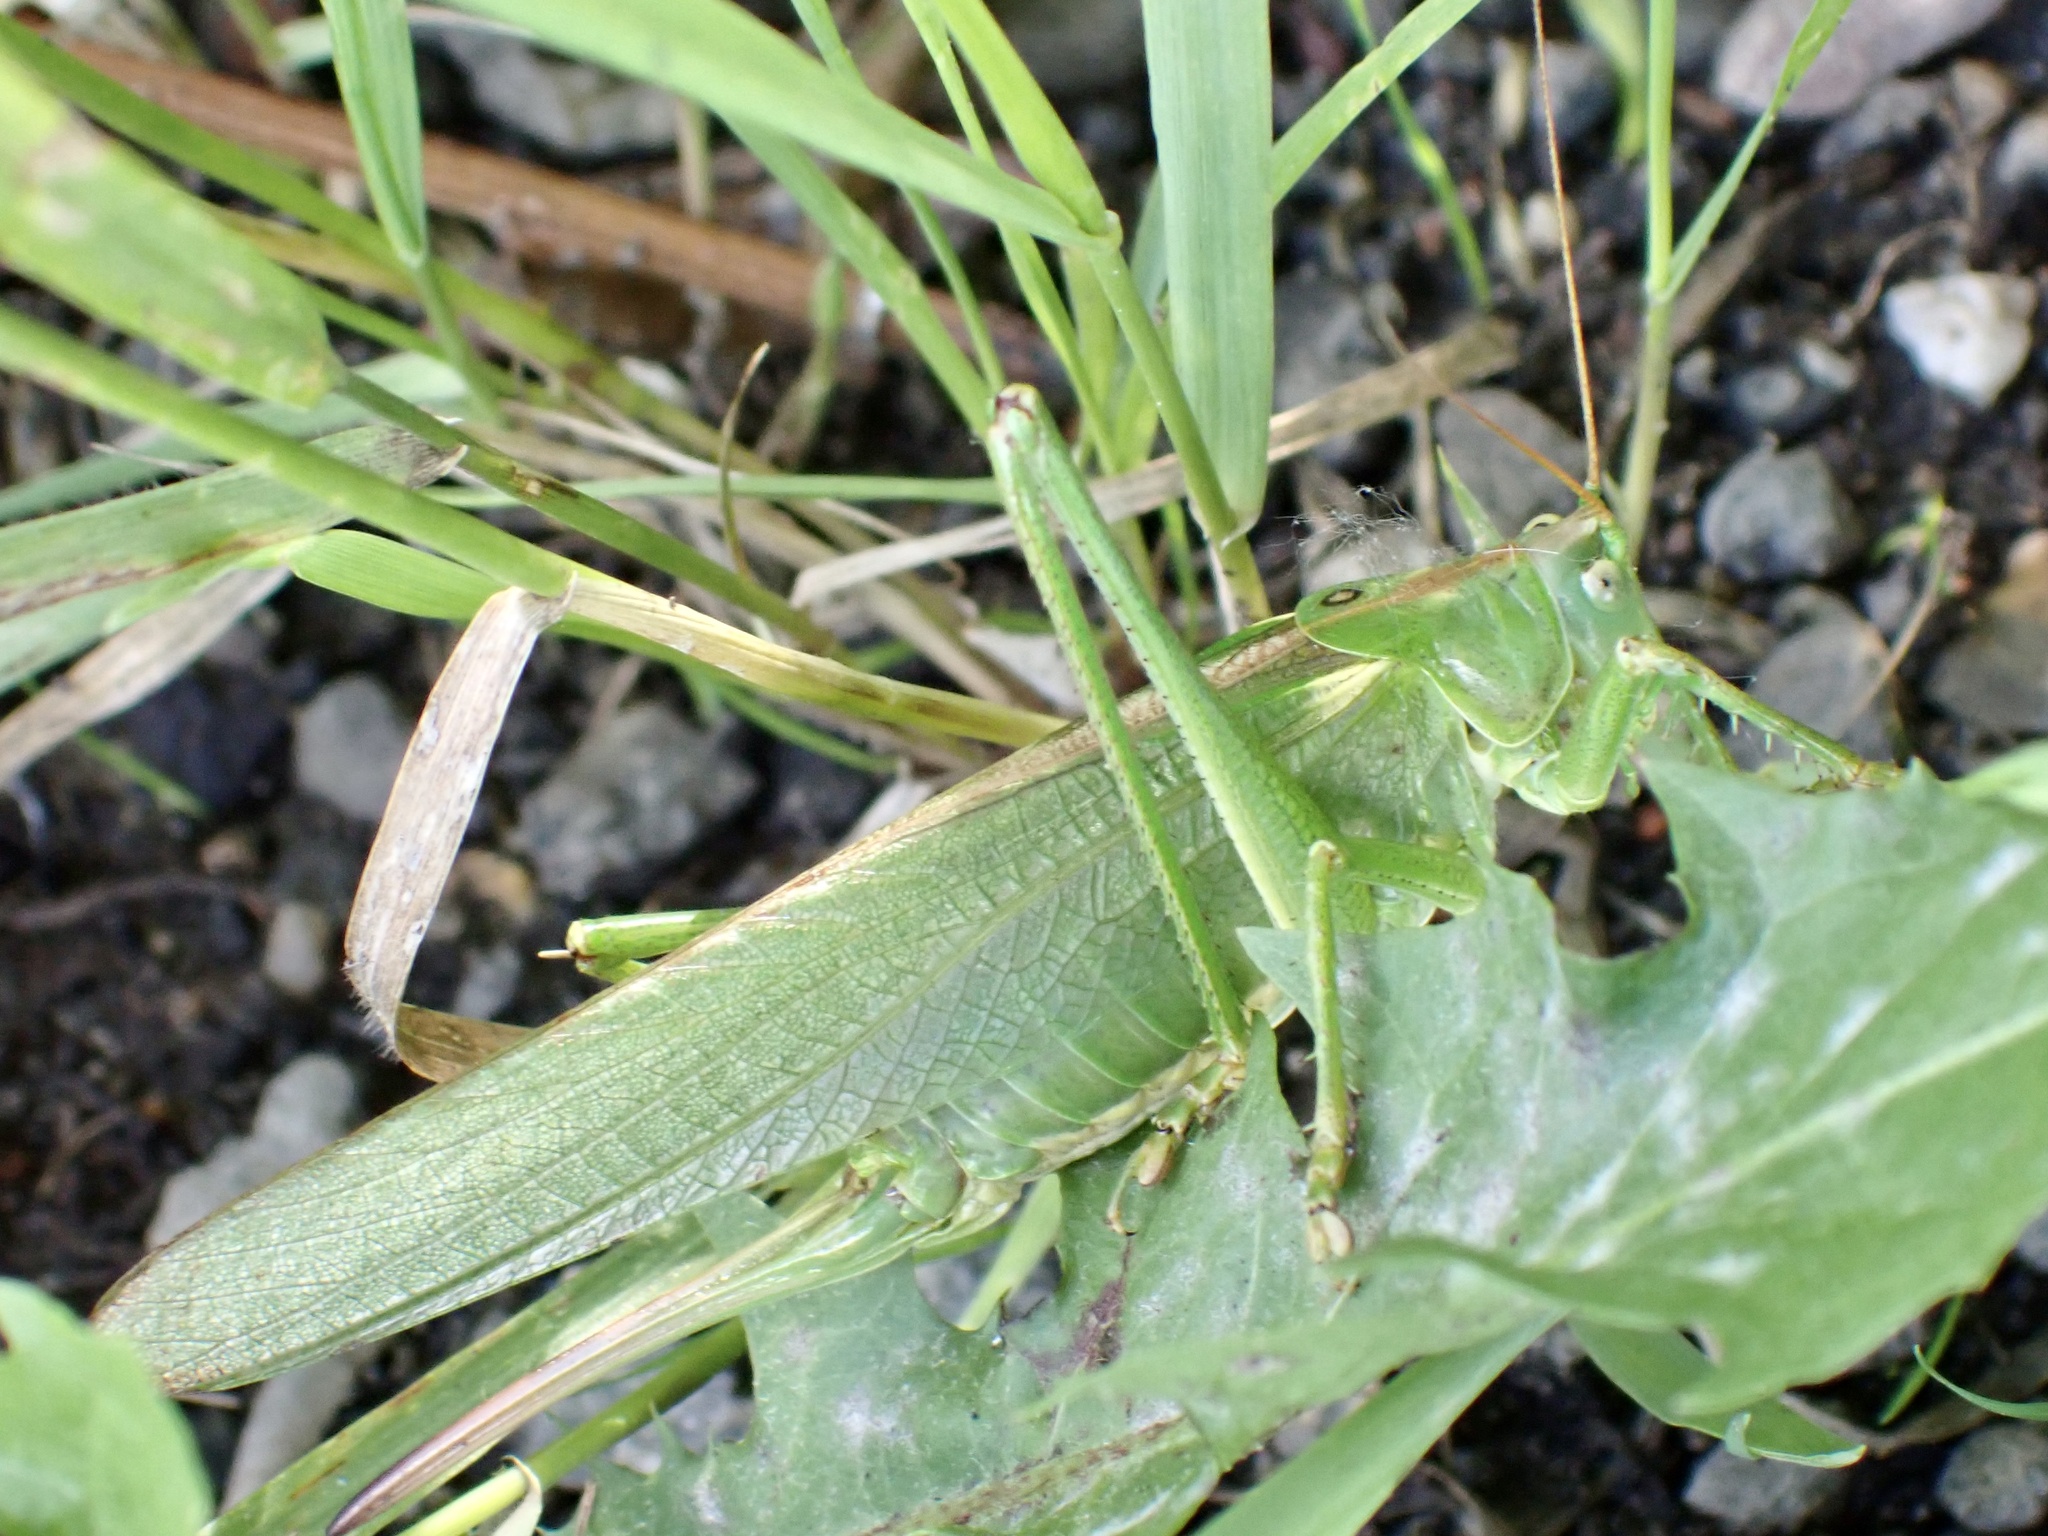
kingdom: Animalia
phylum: Arthropoda
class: Insecta
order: Orthoptera
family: Tettigoniidae
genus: Tettigonia
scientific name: Tettigonia viridissima
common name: Great green bush-cricket
